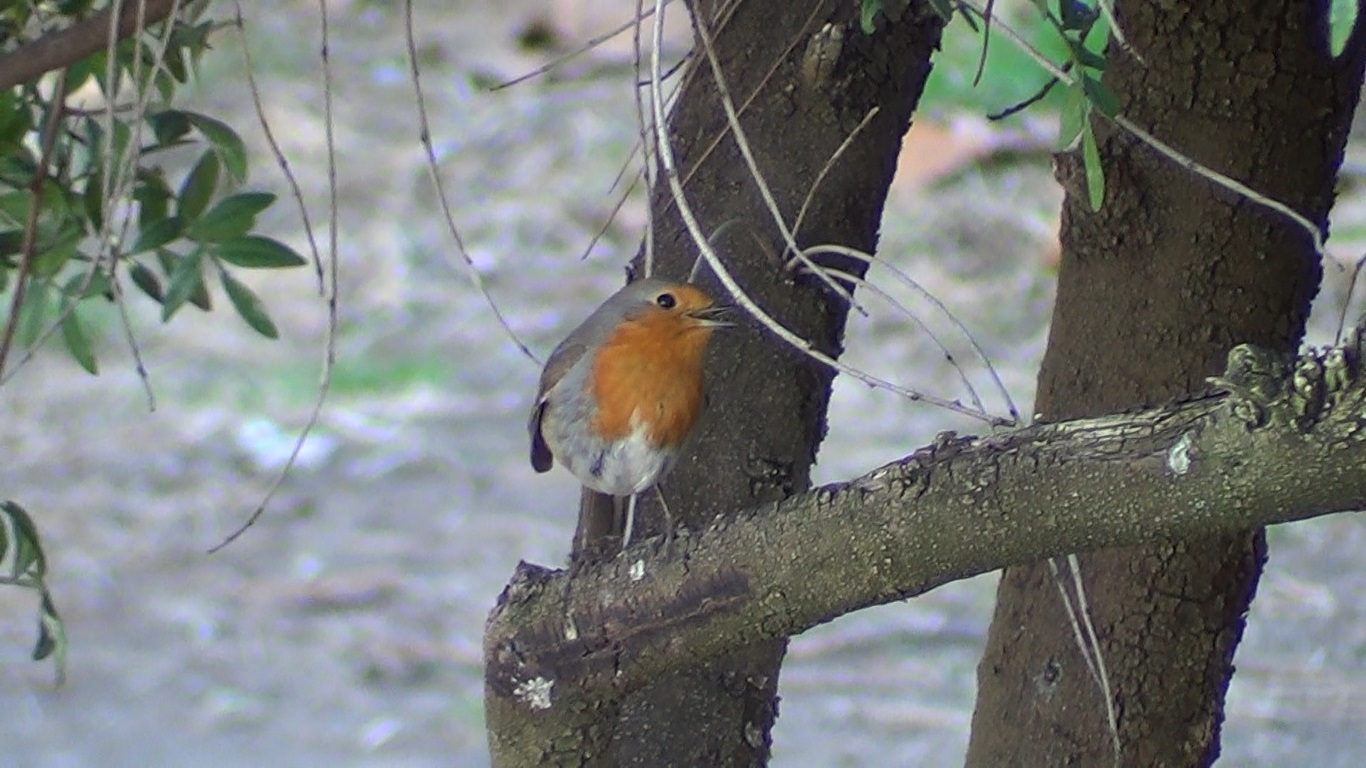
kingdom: Animalia
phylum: Chordata
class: Aves
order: Passeriformes
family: Muscicapidae
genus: Erithacus
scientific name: Erithacus rubecula
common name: European robin
